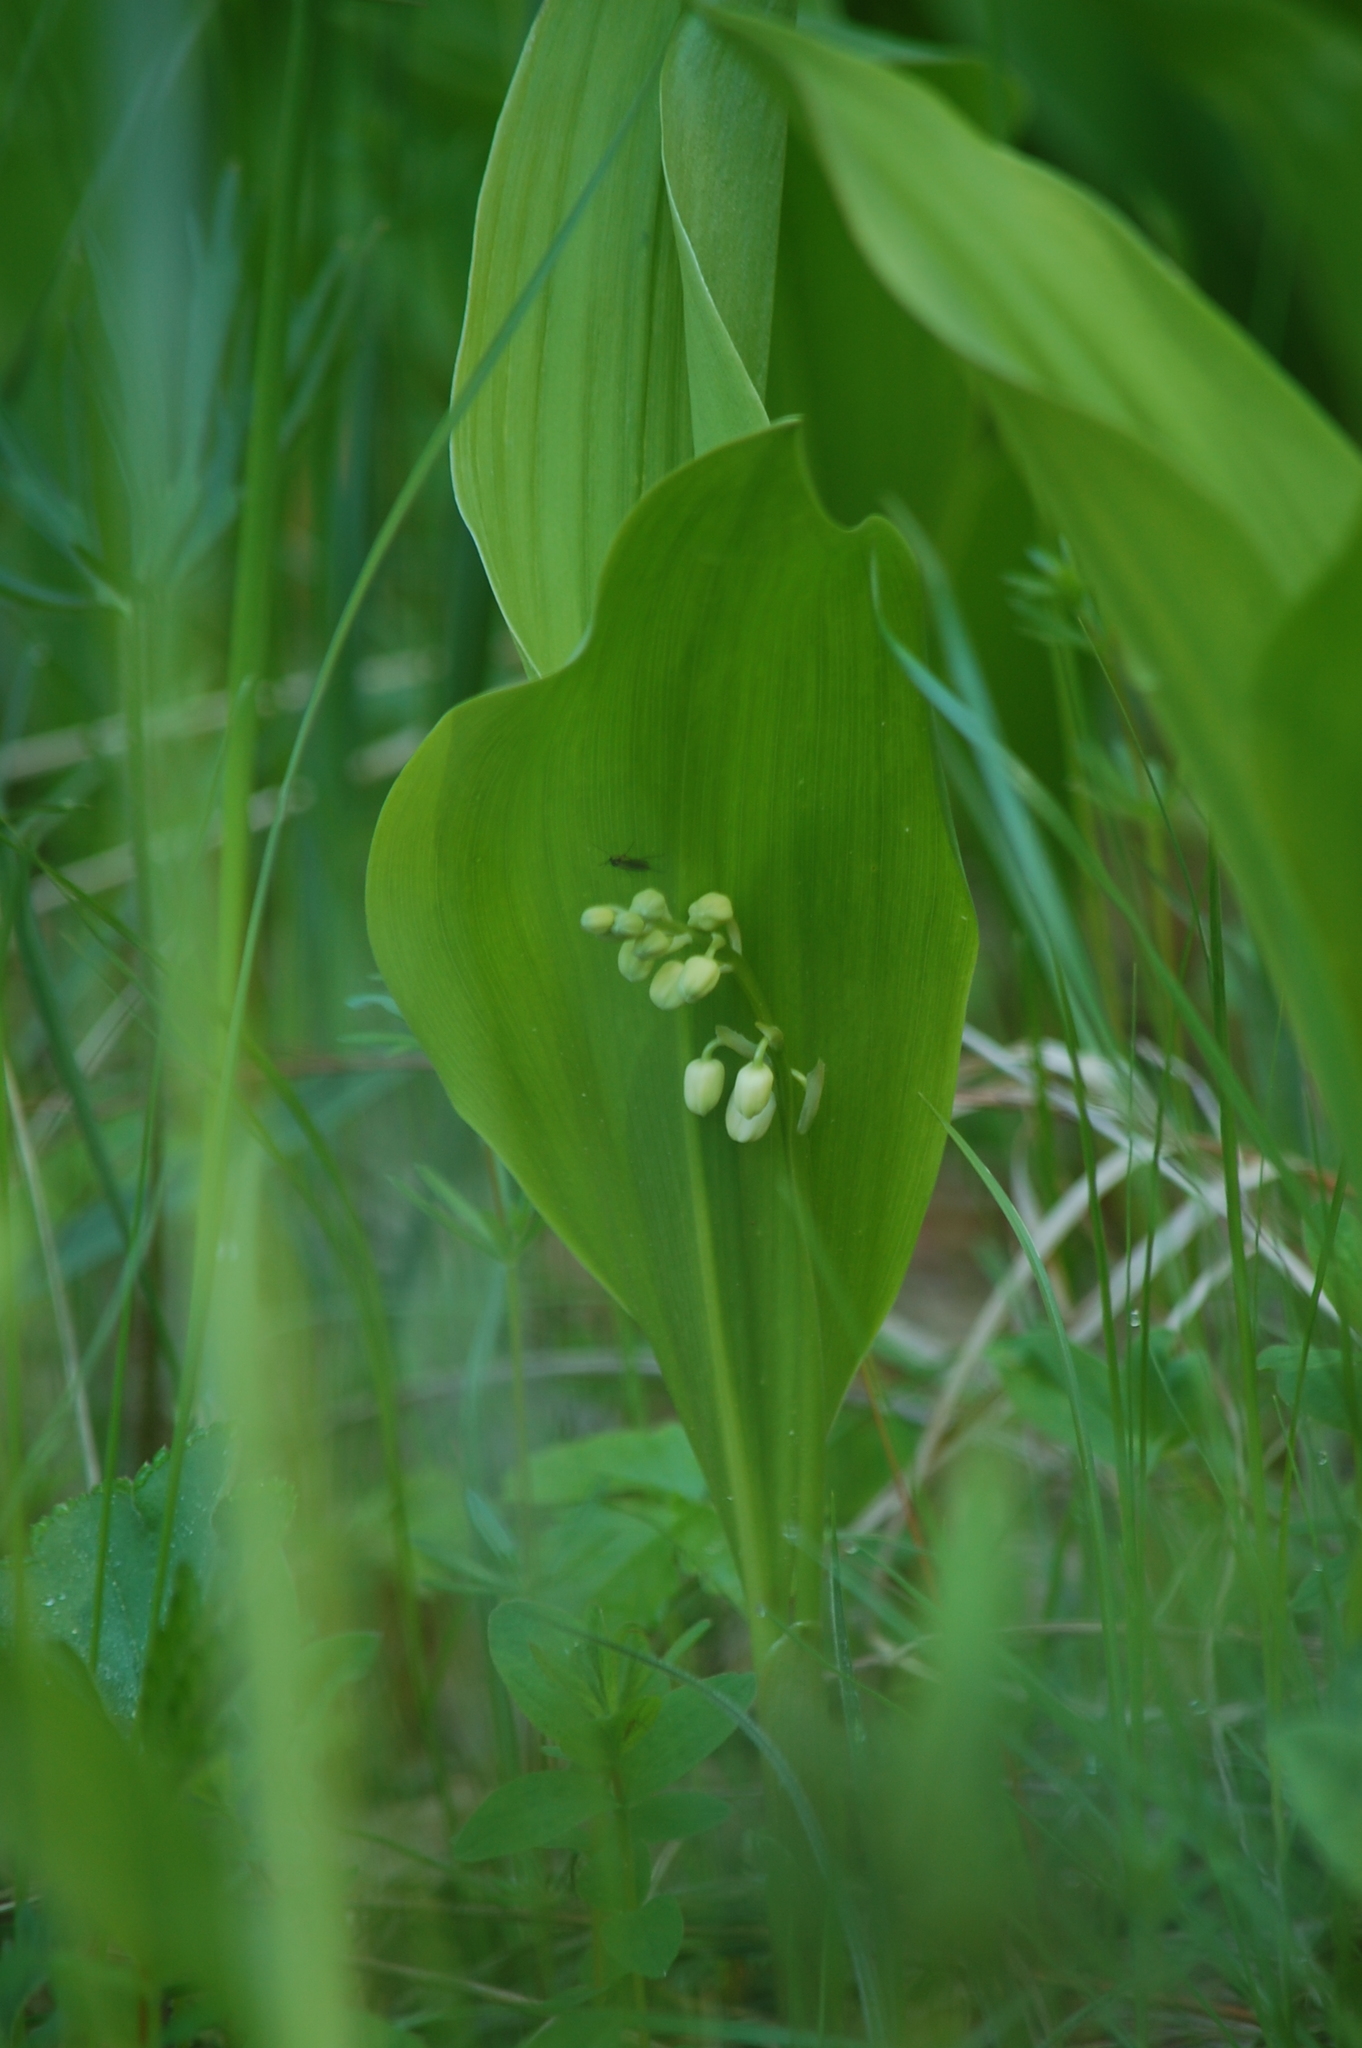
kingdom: Plantae
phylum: Tracheophyta
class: Liliopsida
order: Asparagales
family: Asparagaceae
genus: Convallaria
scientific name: Convallaria majalis
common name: Lily-of-the-valley
